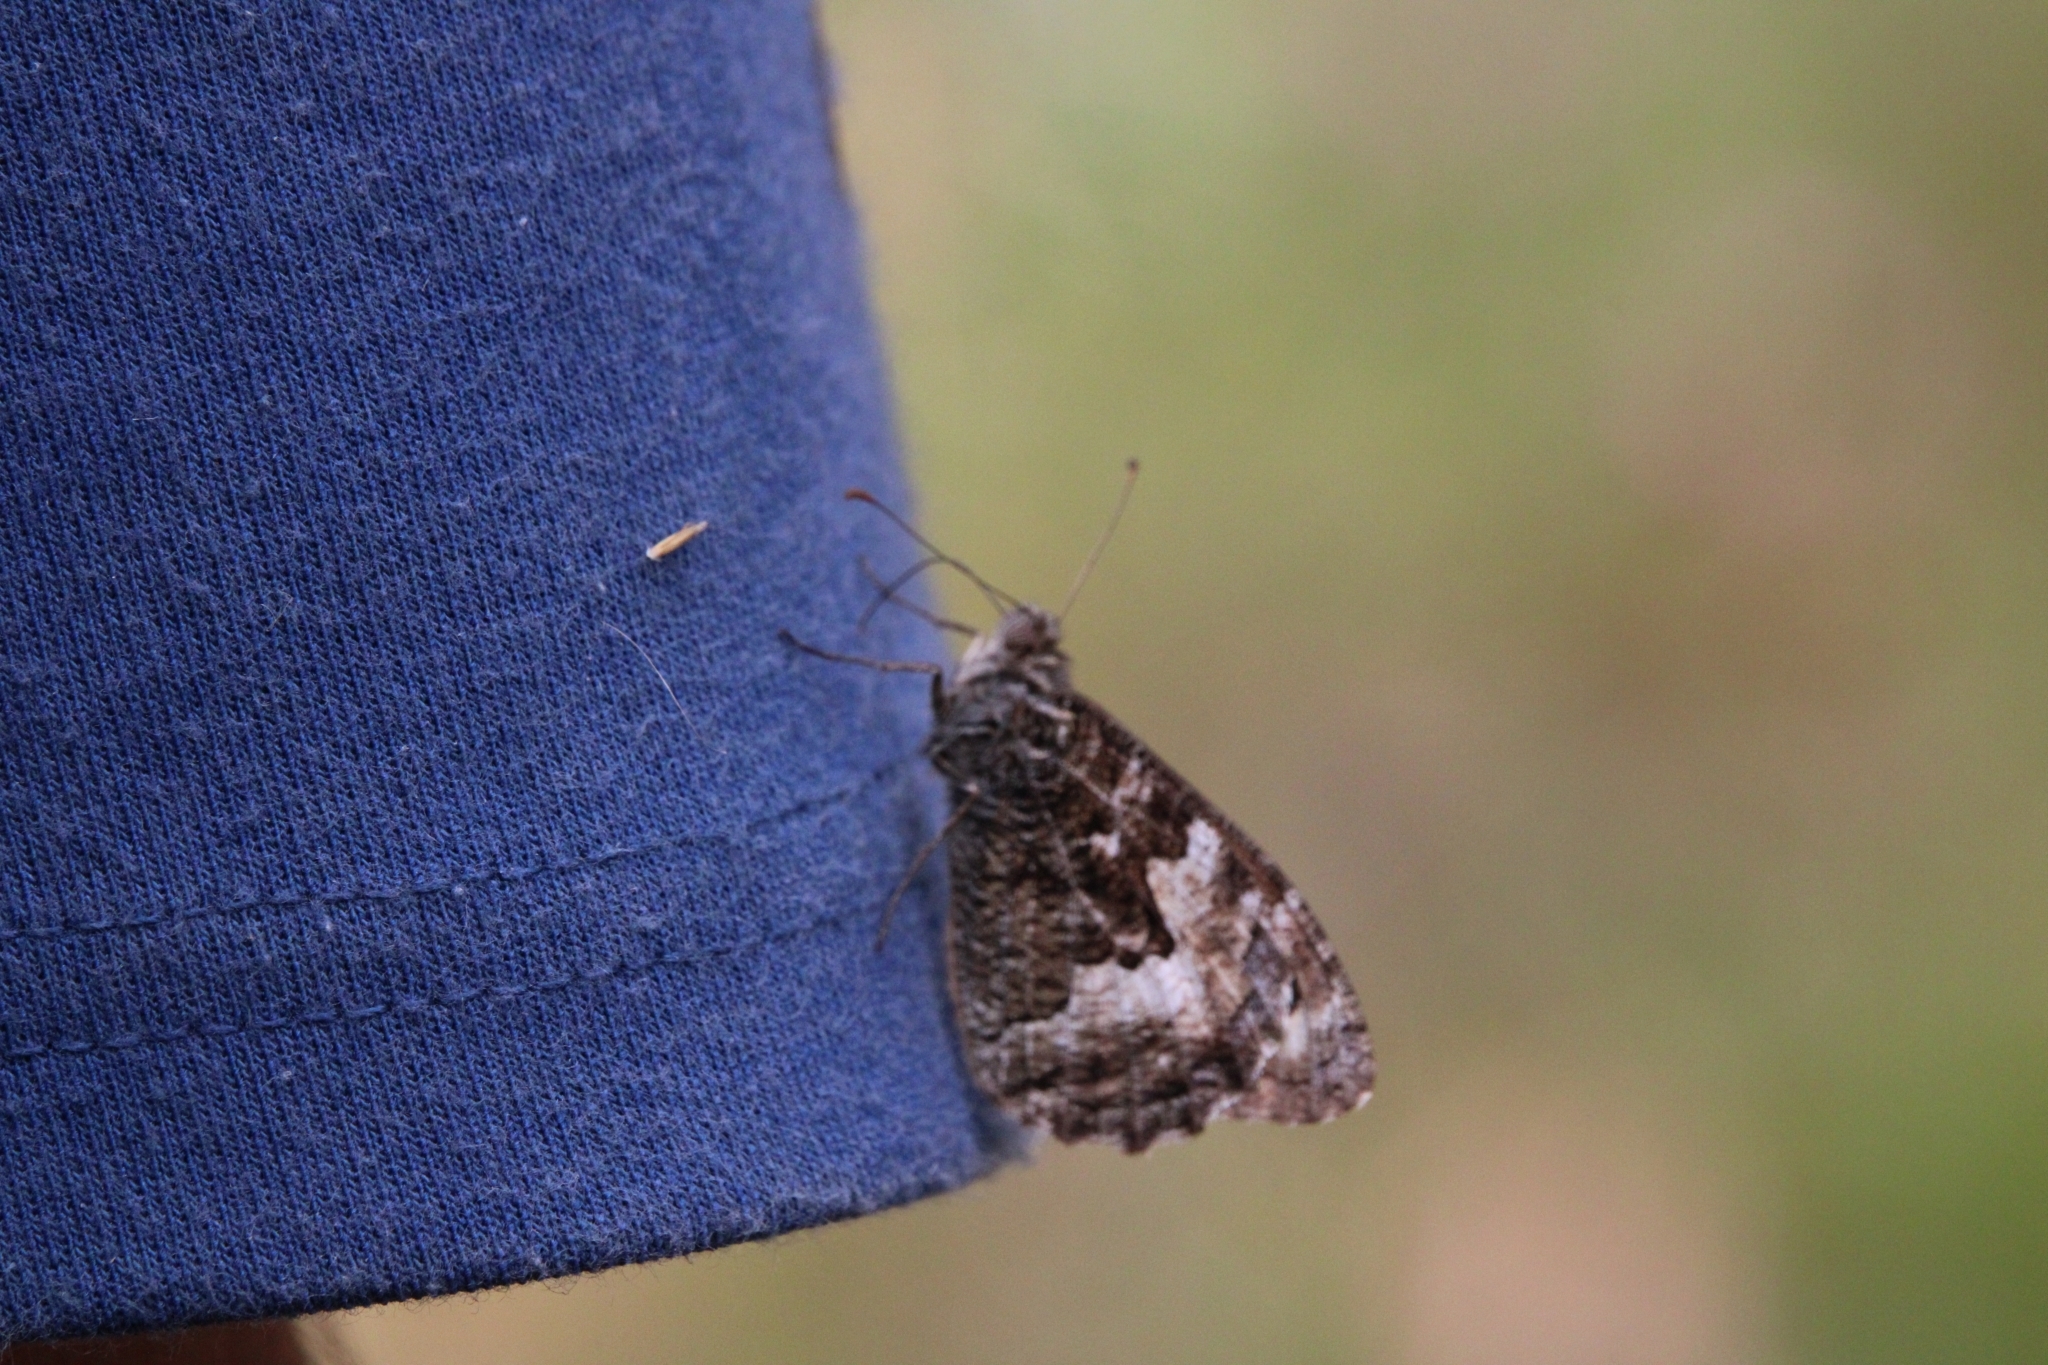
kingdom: Animalia
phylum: Arthropoda
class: Insecta
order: Lepidoptera
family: Nymphalidae
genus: Hipparchia
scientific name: Hipparchia semele
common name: Grayling
